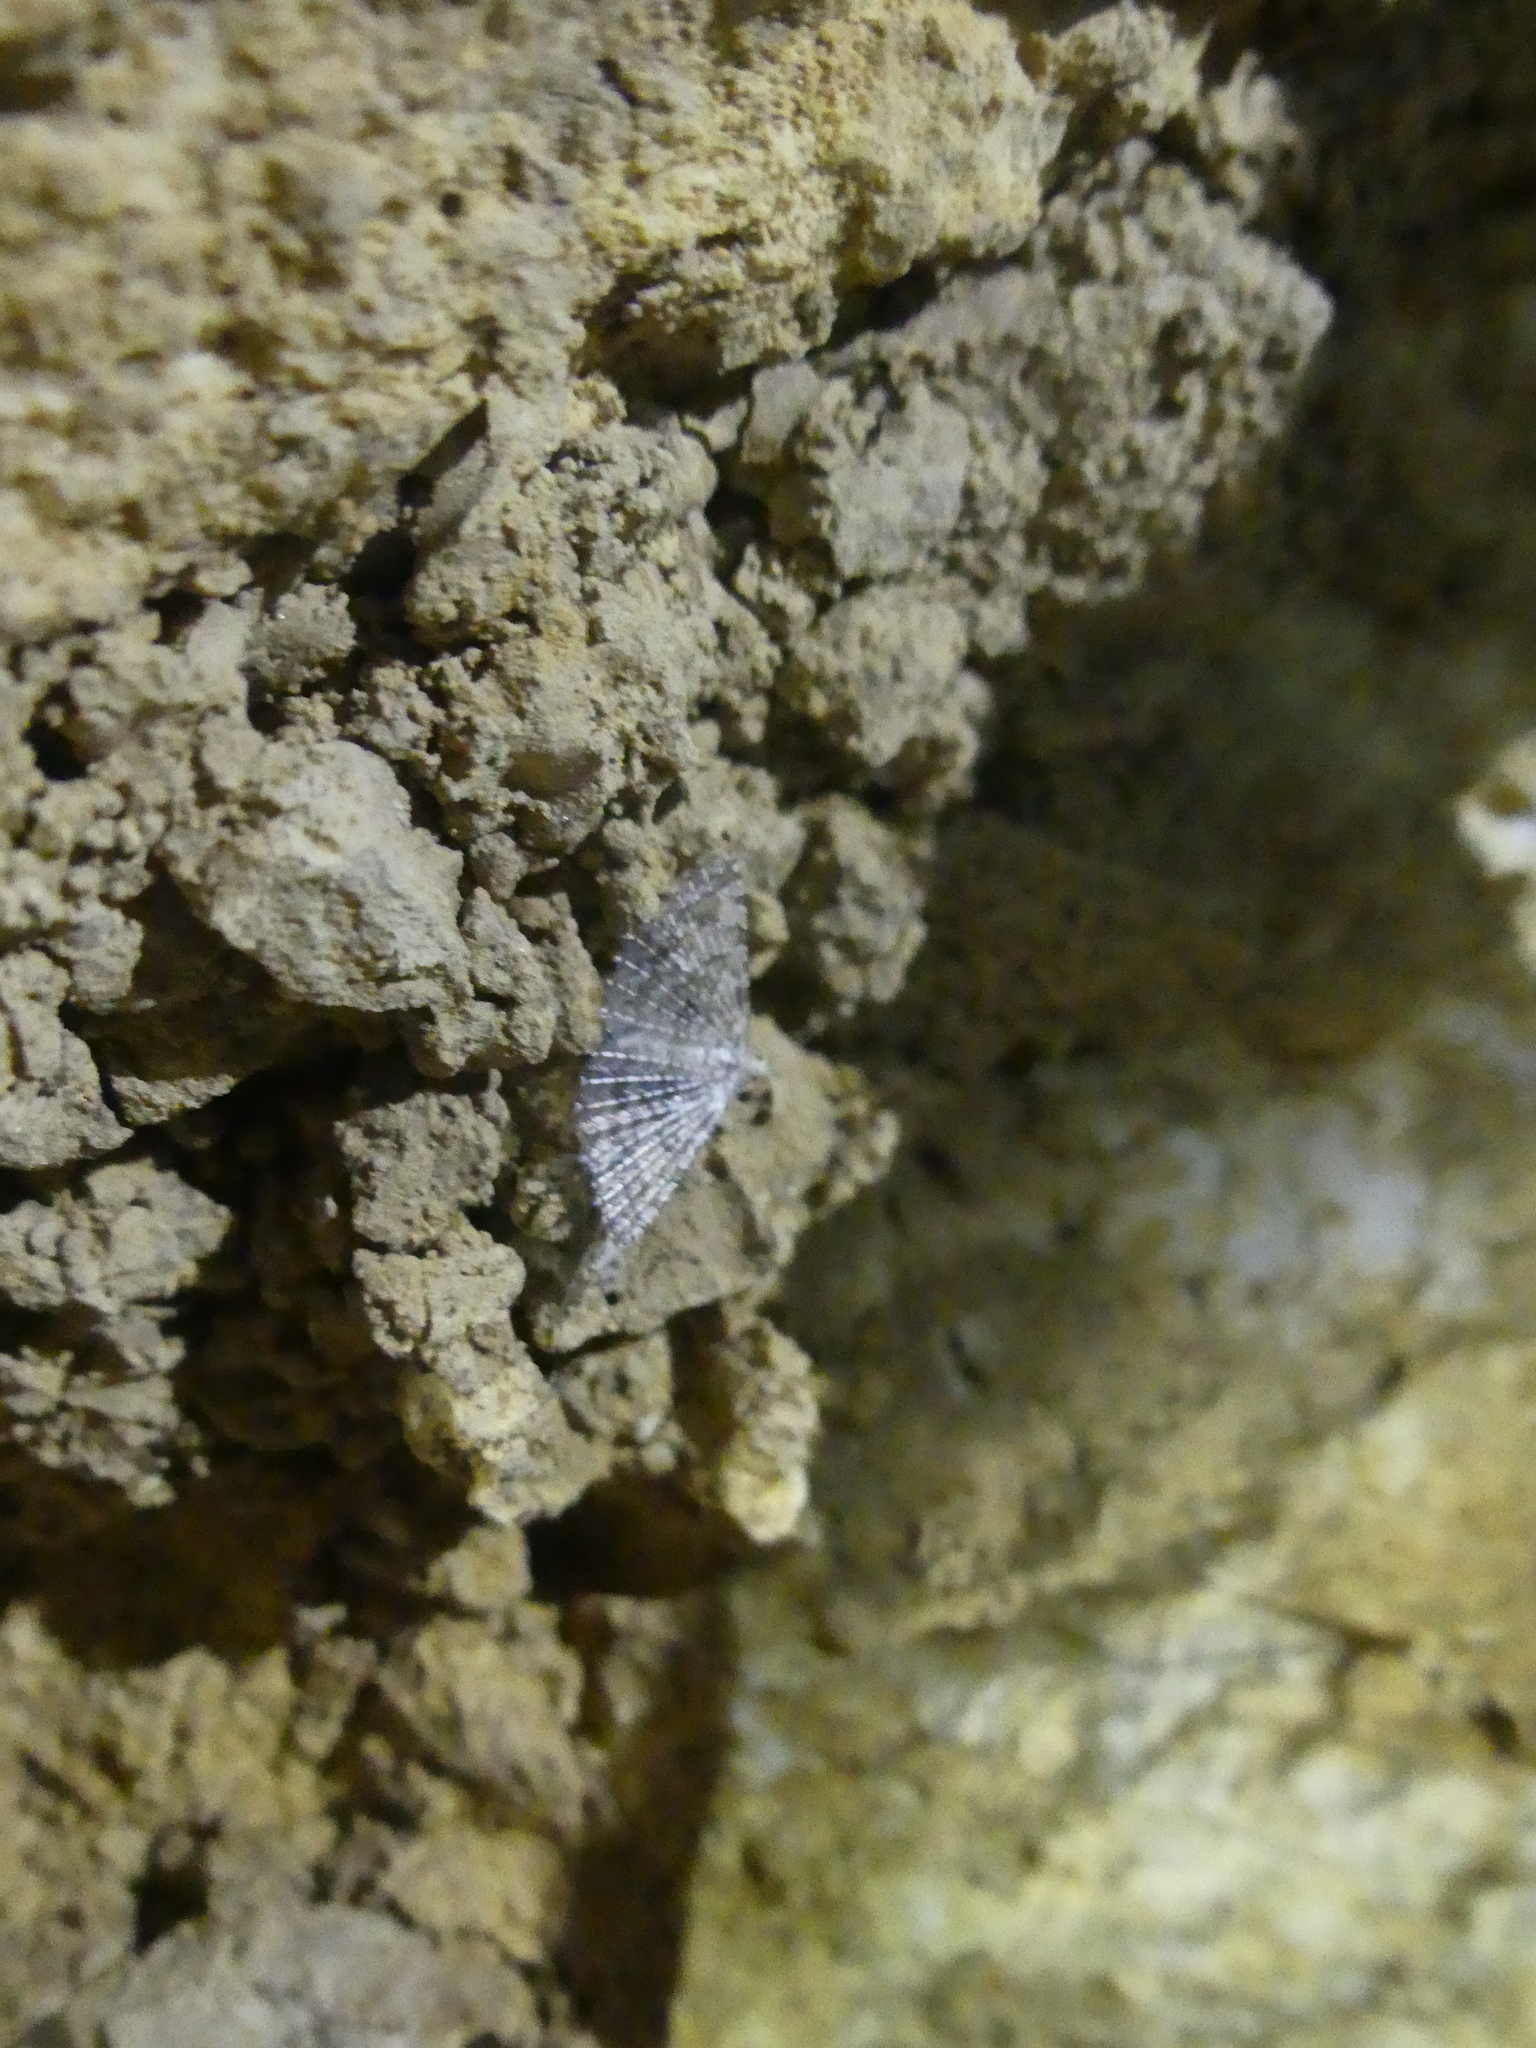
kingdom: Animalia
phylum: Arthropoda
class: Insecta
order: Lepidoptera
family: Alucitidae
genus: Alucita
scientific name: Alucita hexadactyla
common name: Twenty-plume moth
